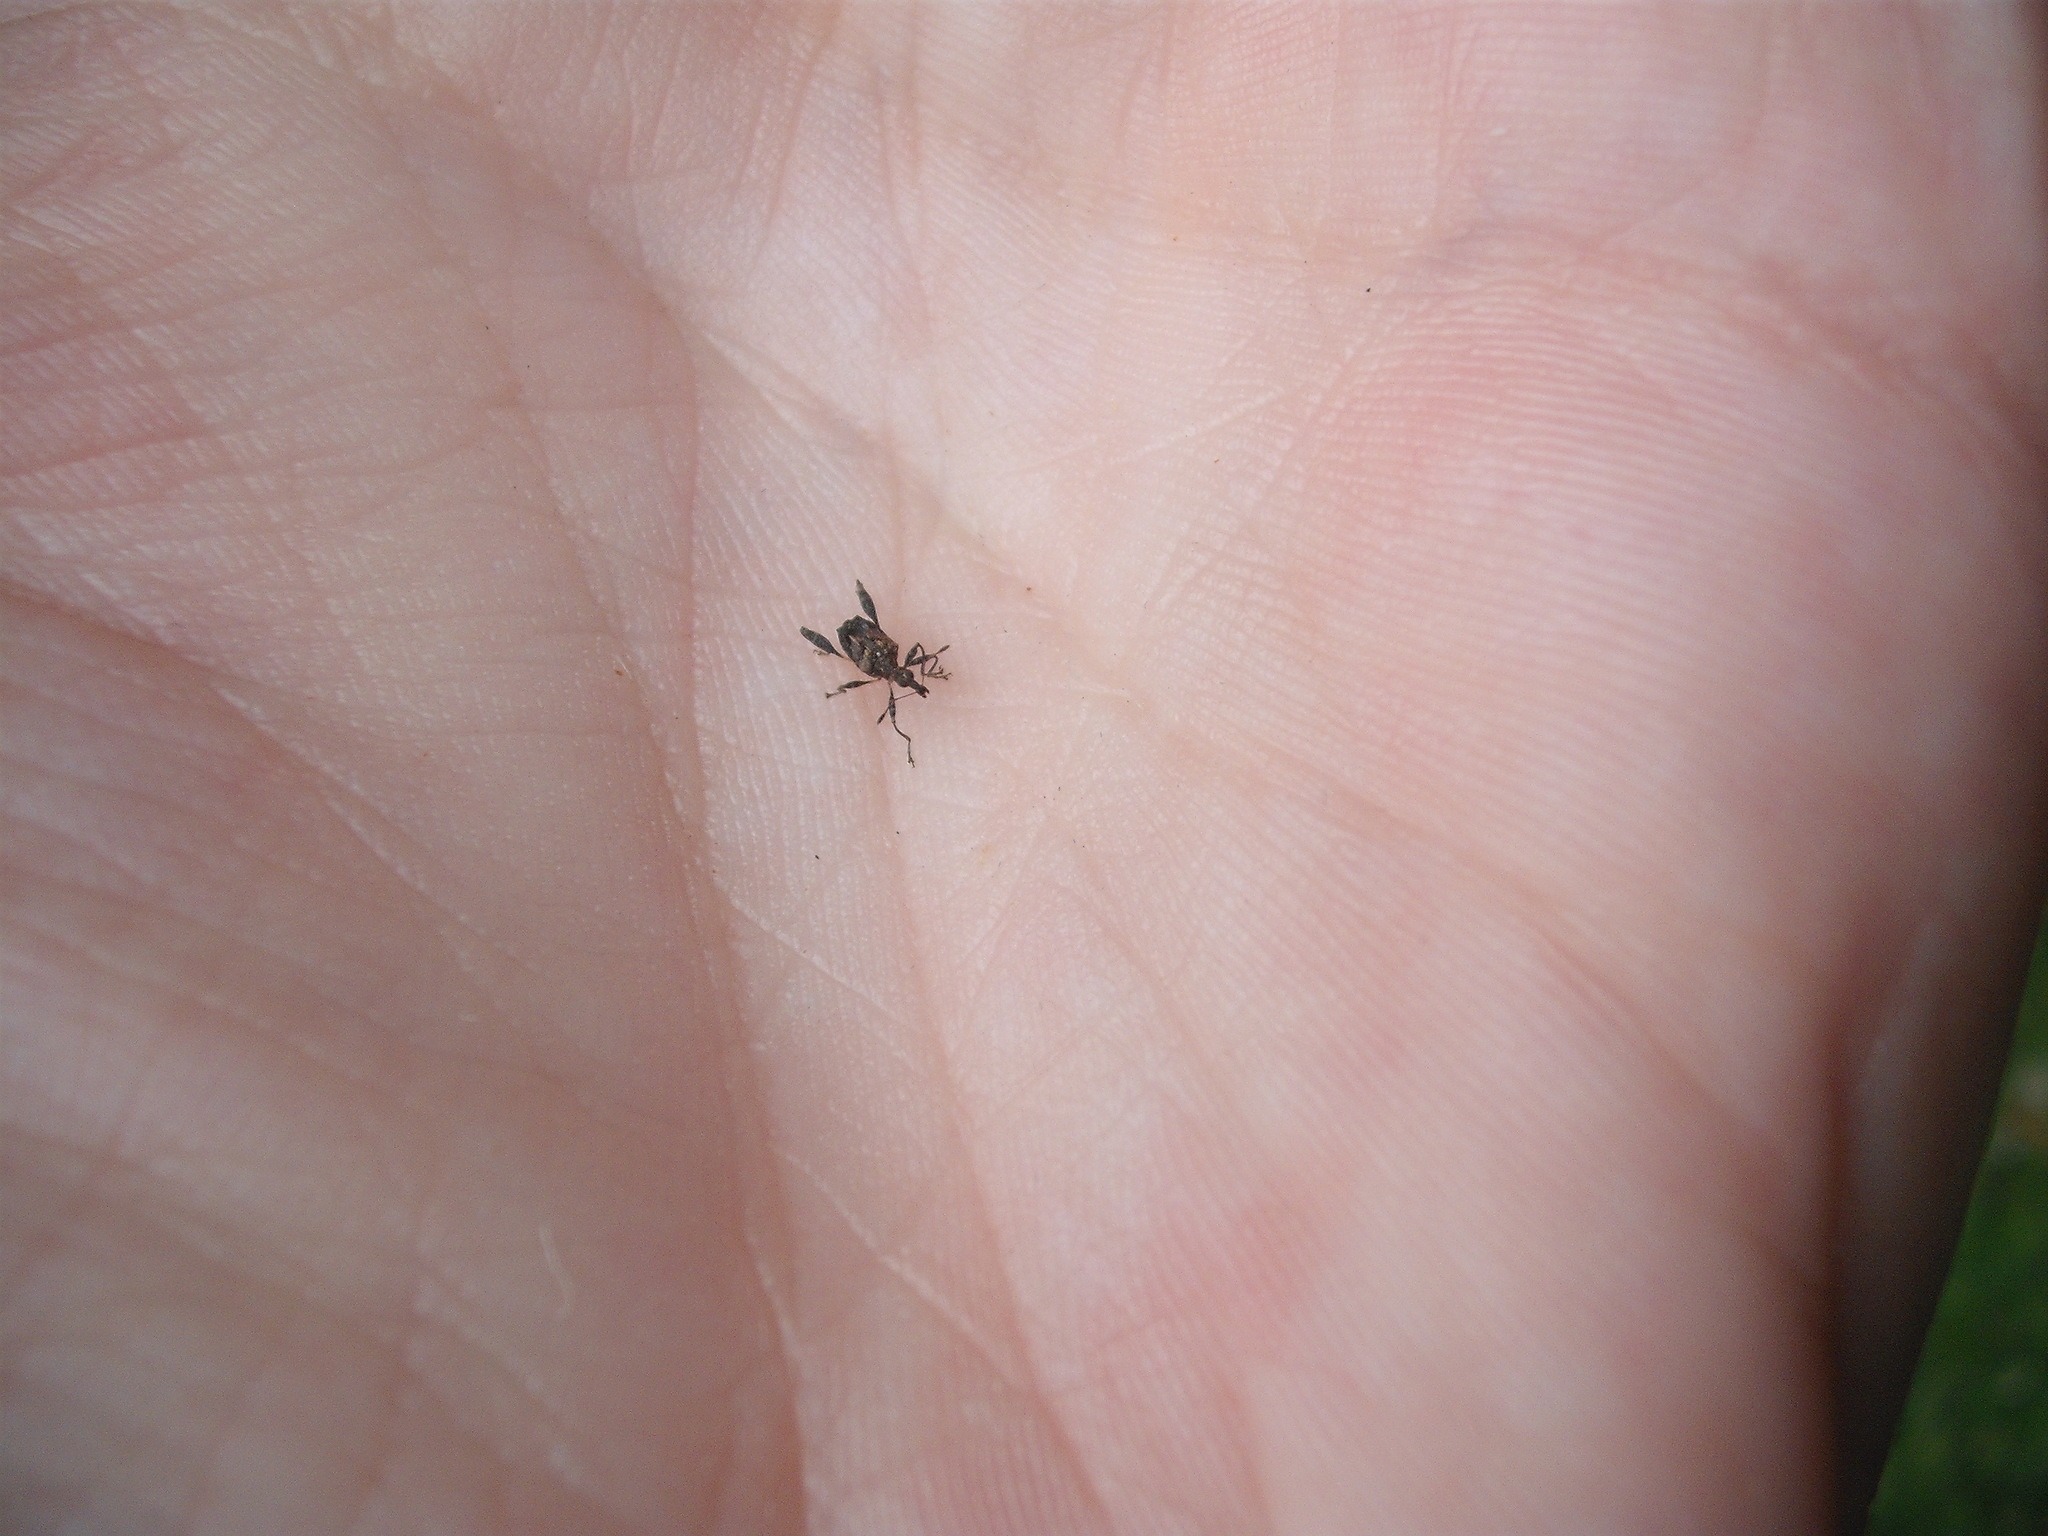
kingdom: Animalia
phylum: Arthropoda
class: Insecta
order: Coleoptera
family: Curculionidae
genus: Stephanorhynchus
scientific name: Stephanorhynchus lawsoni
